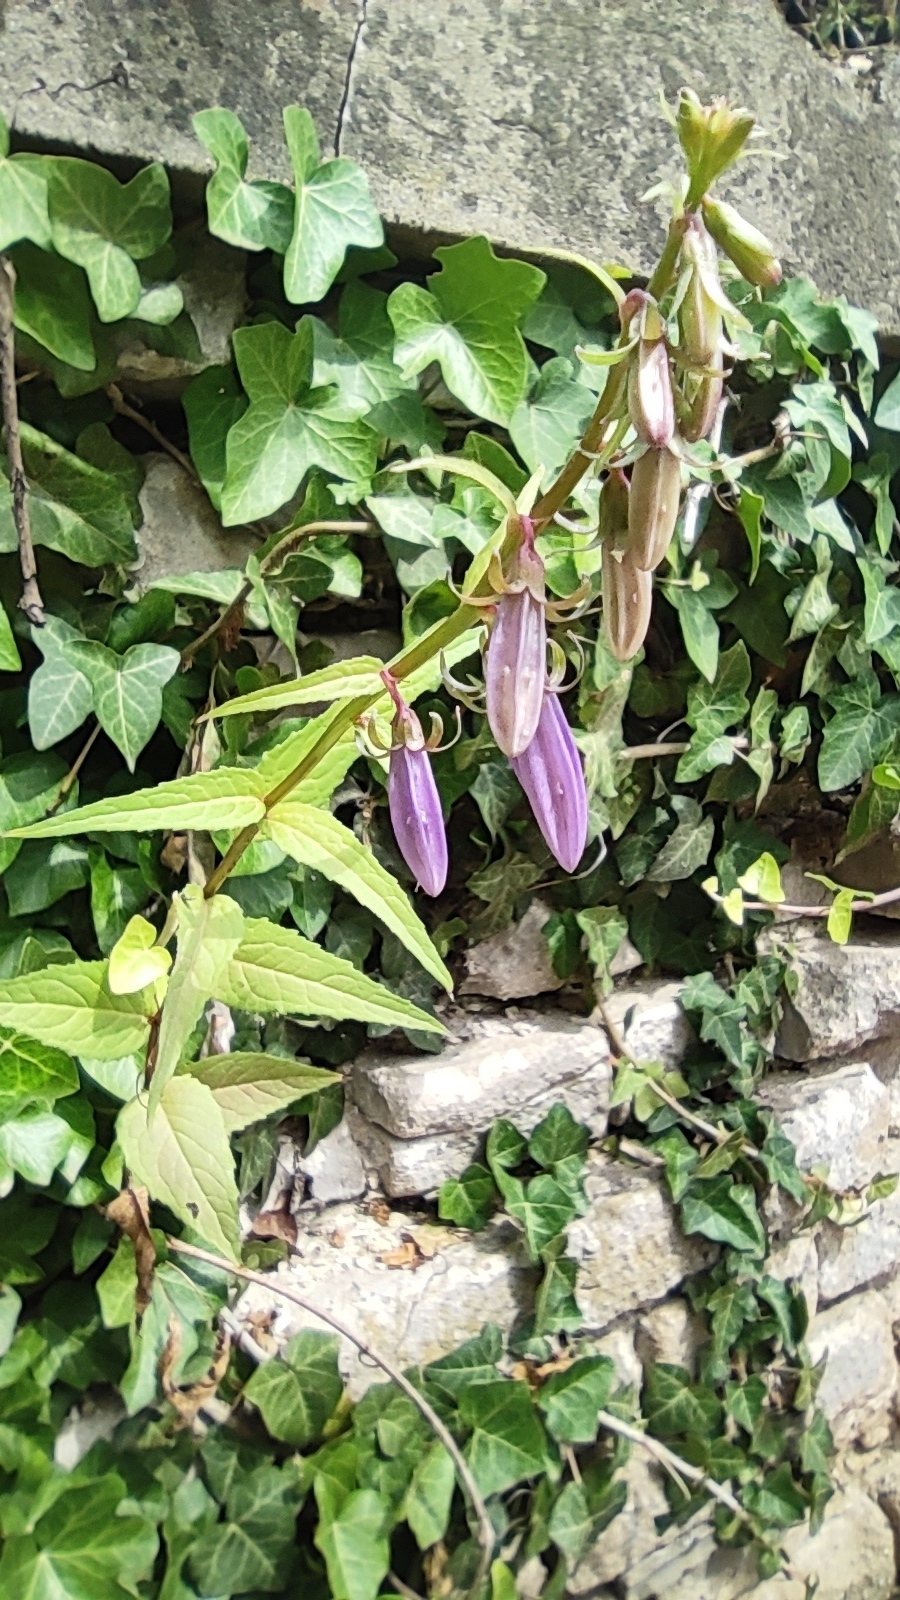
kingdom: Plantae
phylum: Tracheophyta
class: Magnoliopsida
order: Asterales
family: Campanulaceae
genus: Campanula
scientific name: Campanula rapunculoides
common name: Creeping bellflower
